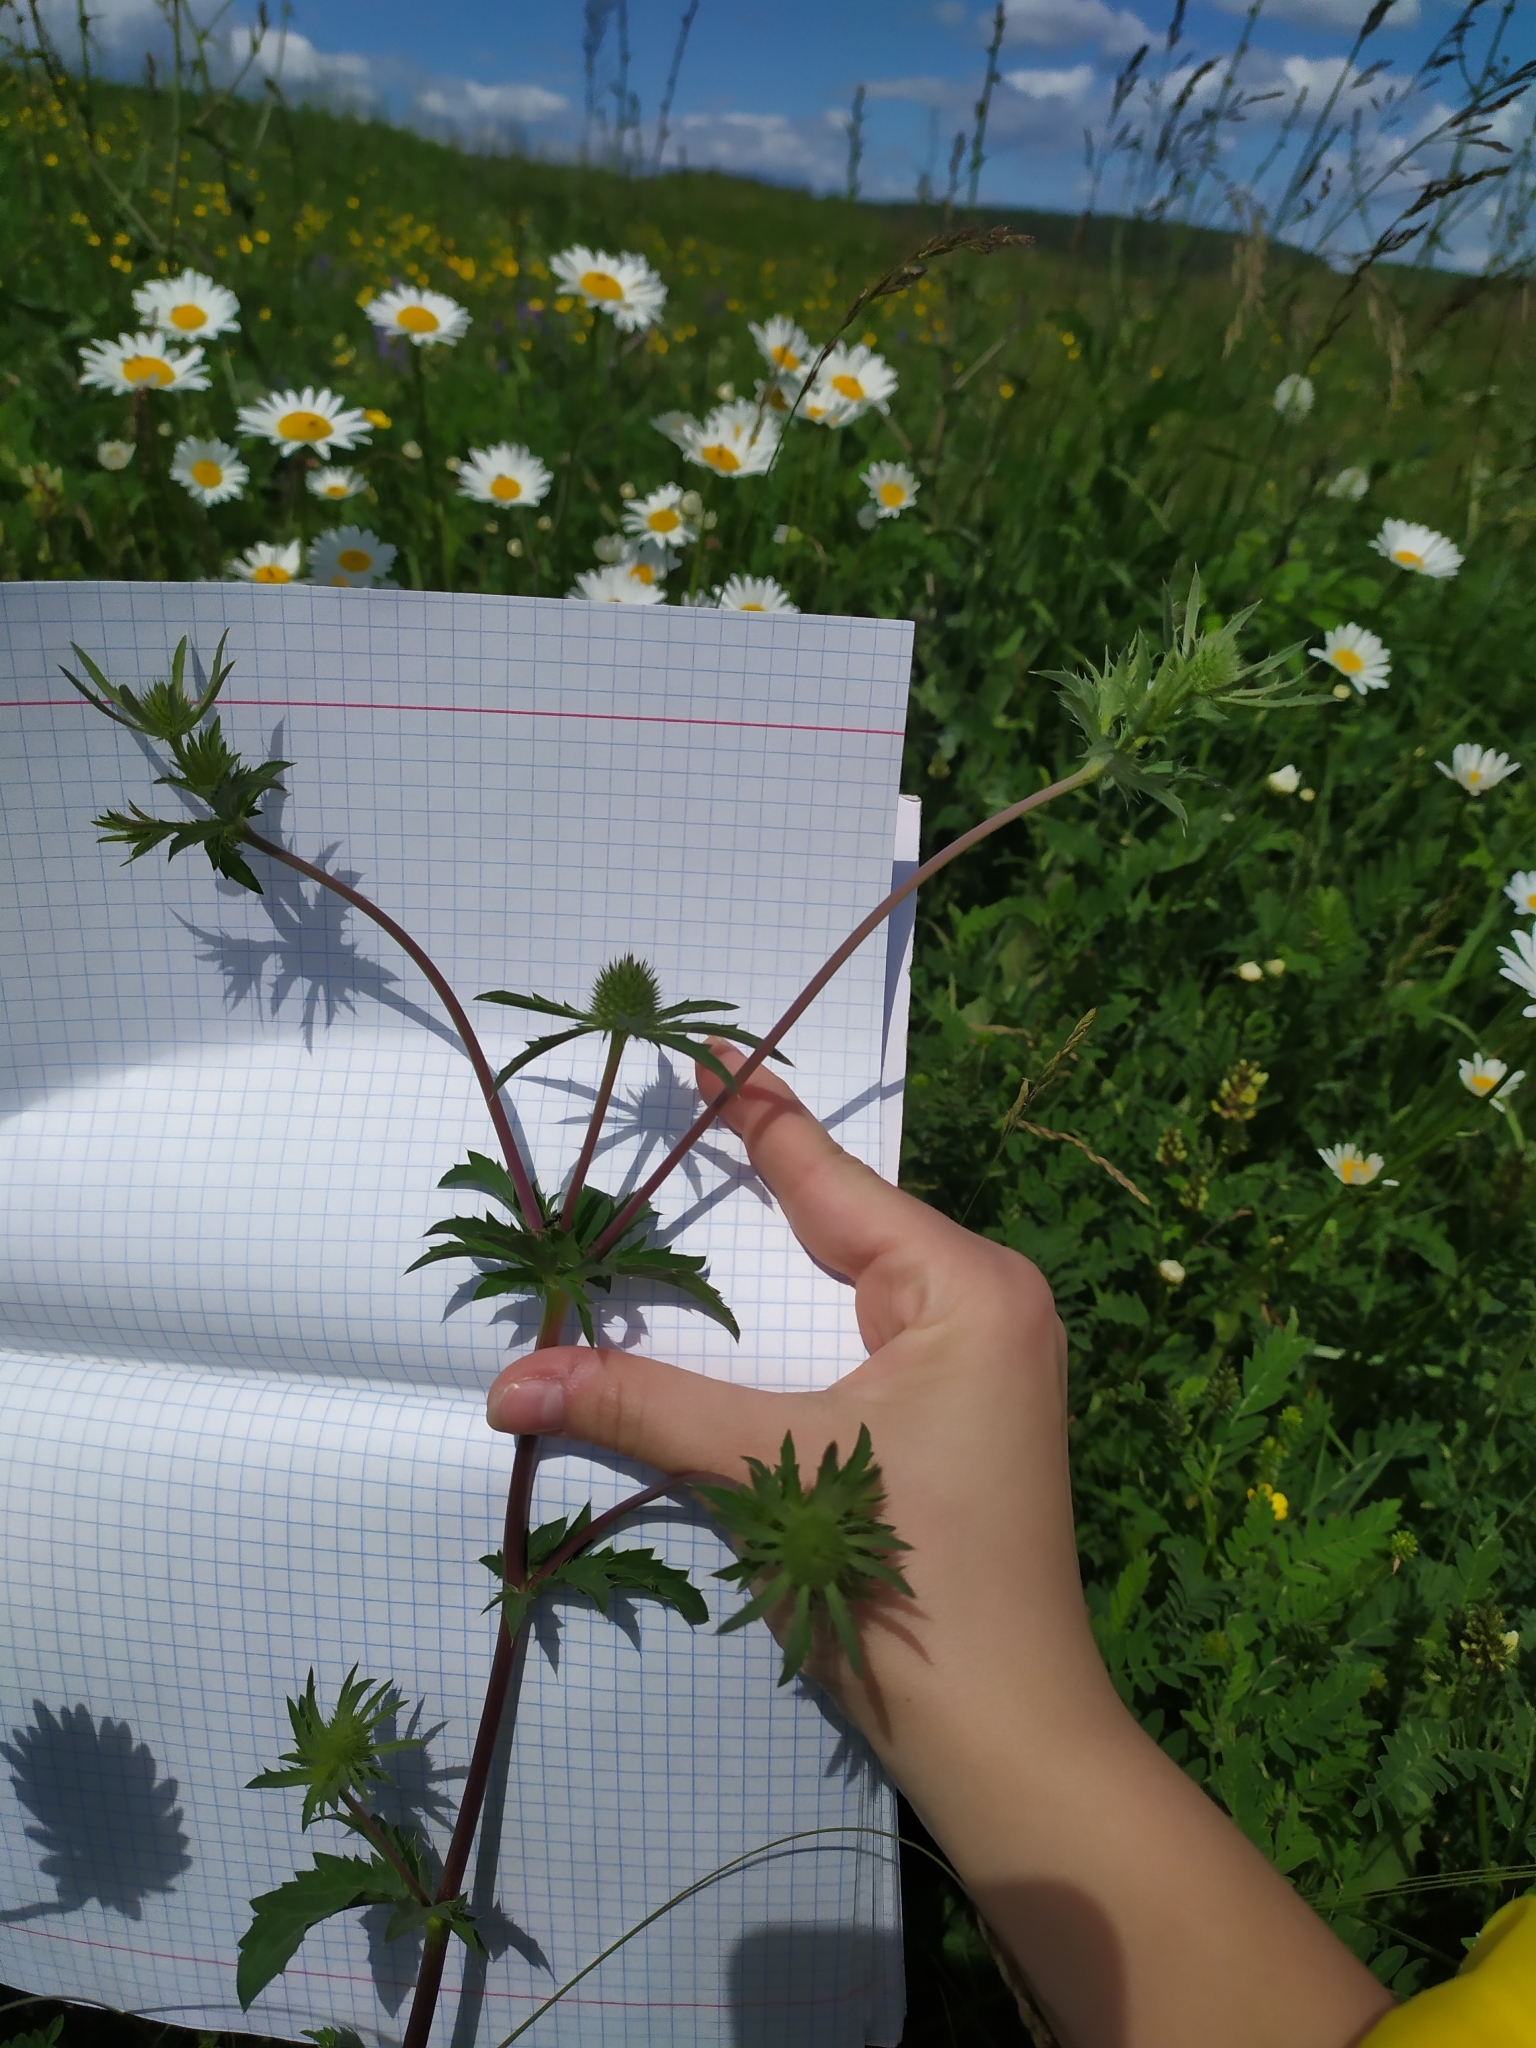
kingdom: Plantae
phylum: Tracheophyta
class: Magnoliopsida
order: Apiales
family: Apiaceae
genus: Eryngium
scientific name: Eryngium planum
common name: Blue eryngo
